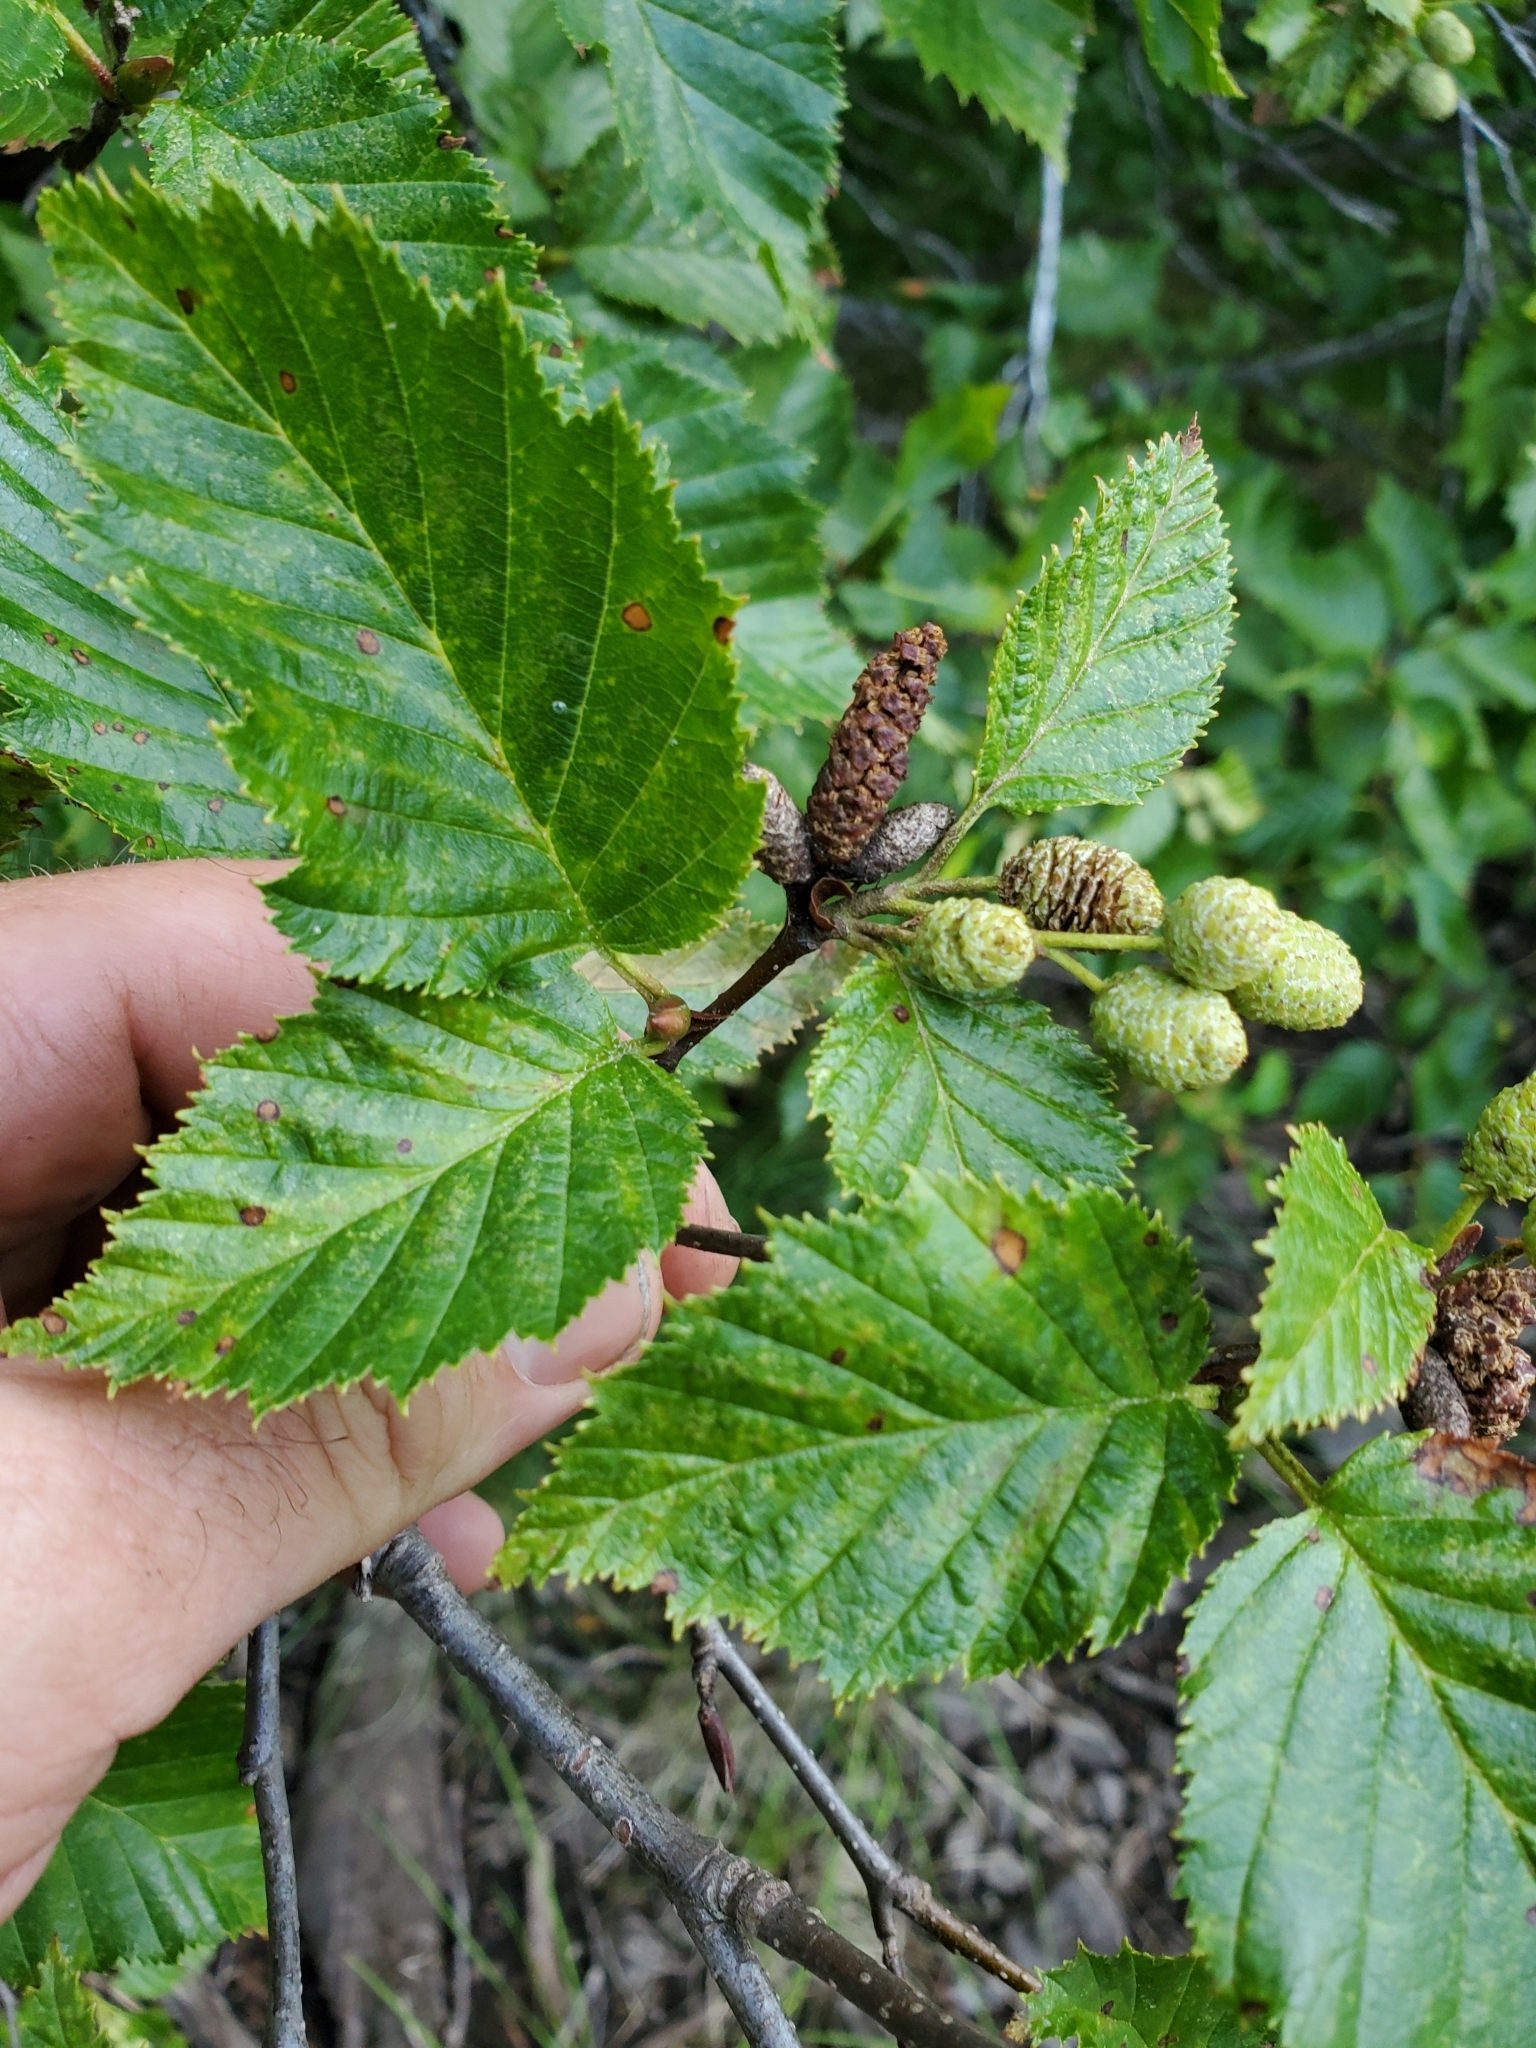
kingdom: Plantae
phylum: Tracheophyta
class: Magnoliopsida
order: Fagales
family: Betulaceae
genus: Alnus
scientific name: Alnus alnobetula
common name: Green alder
